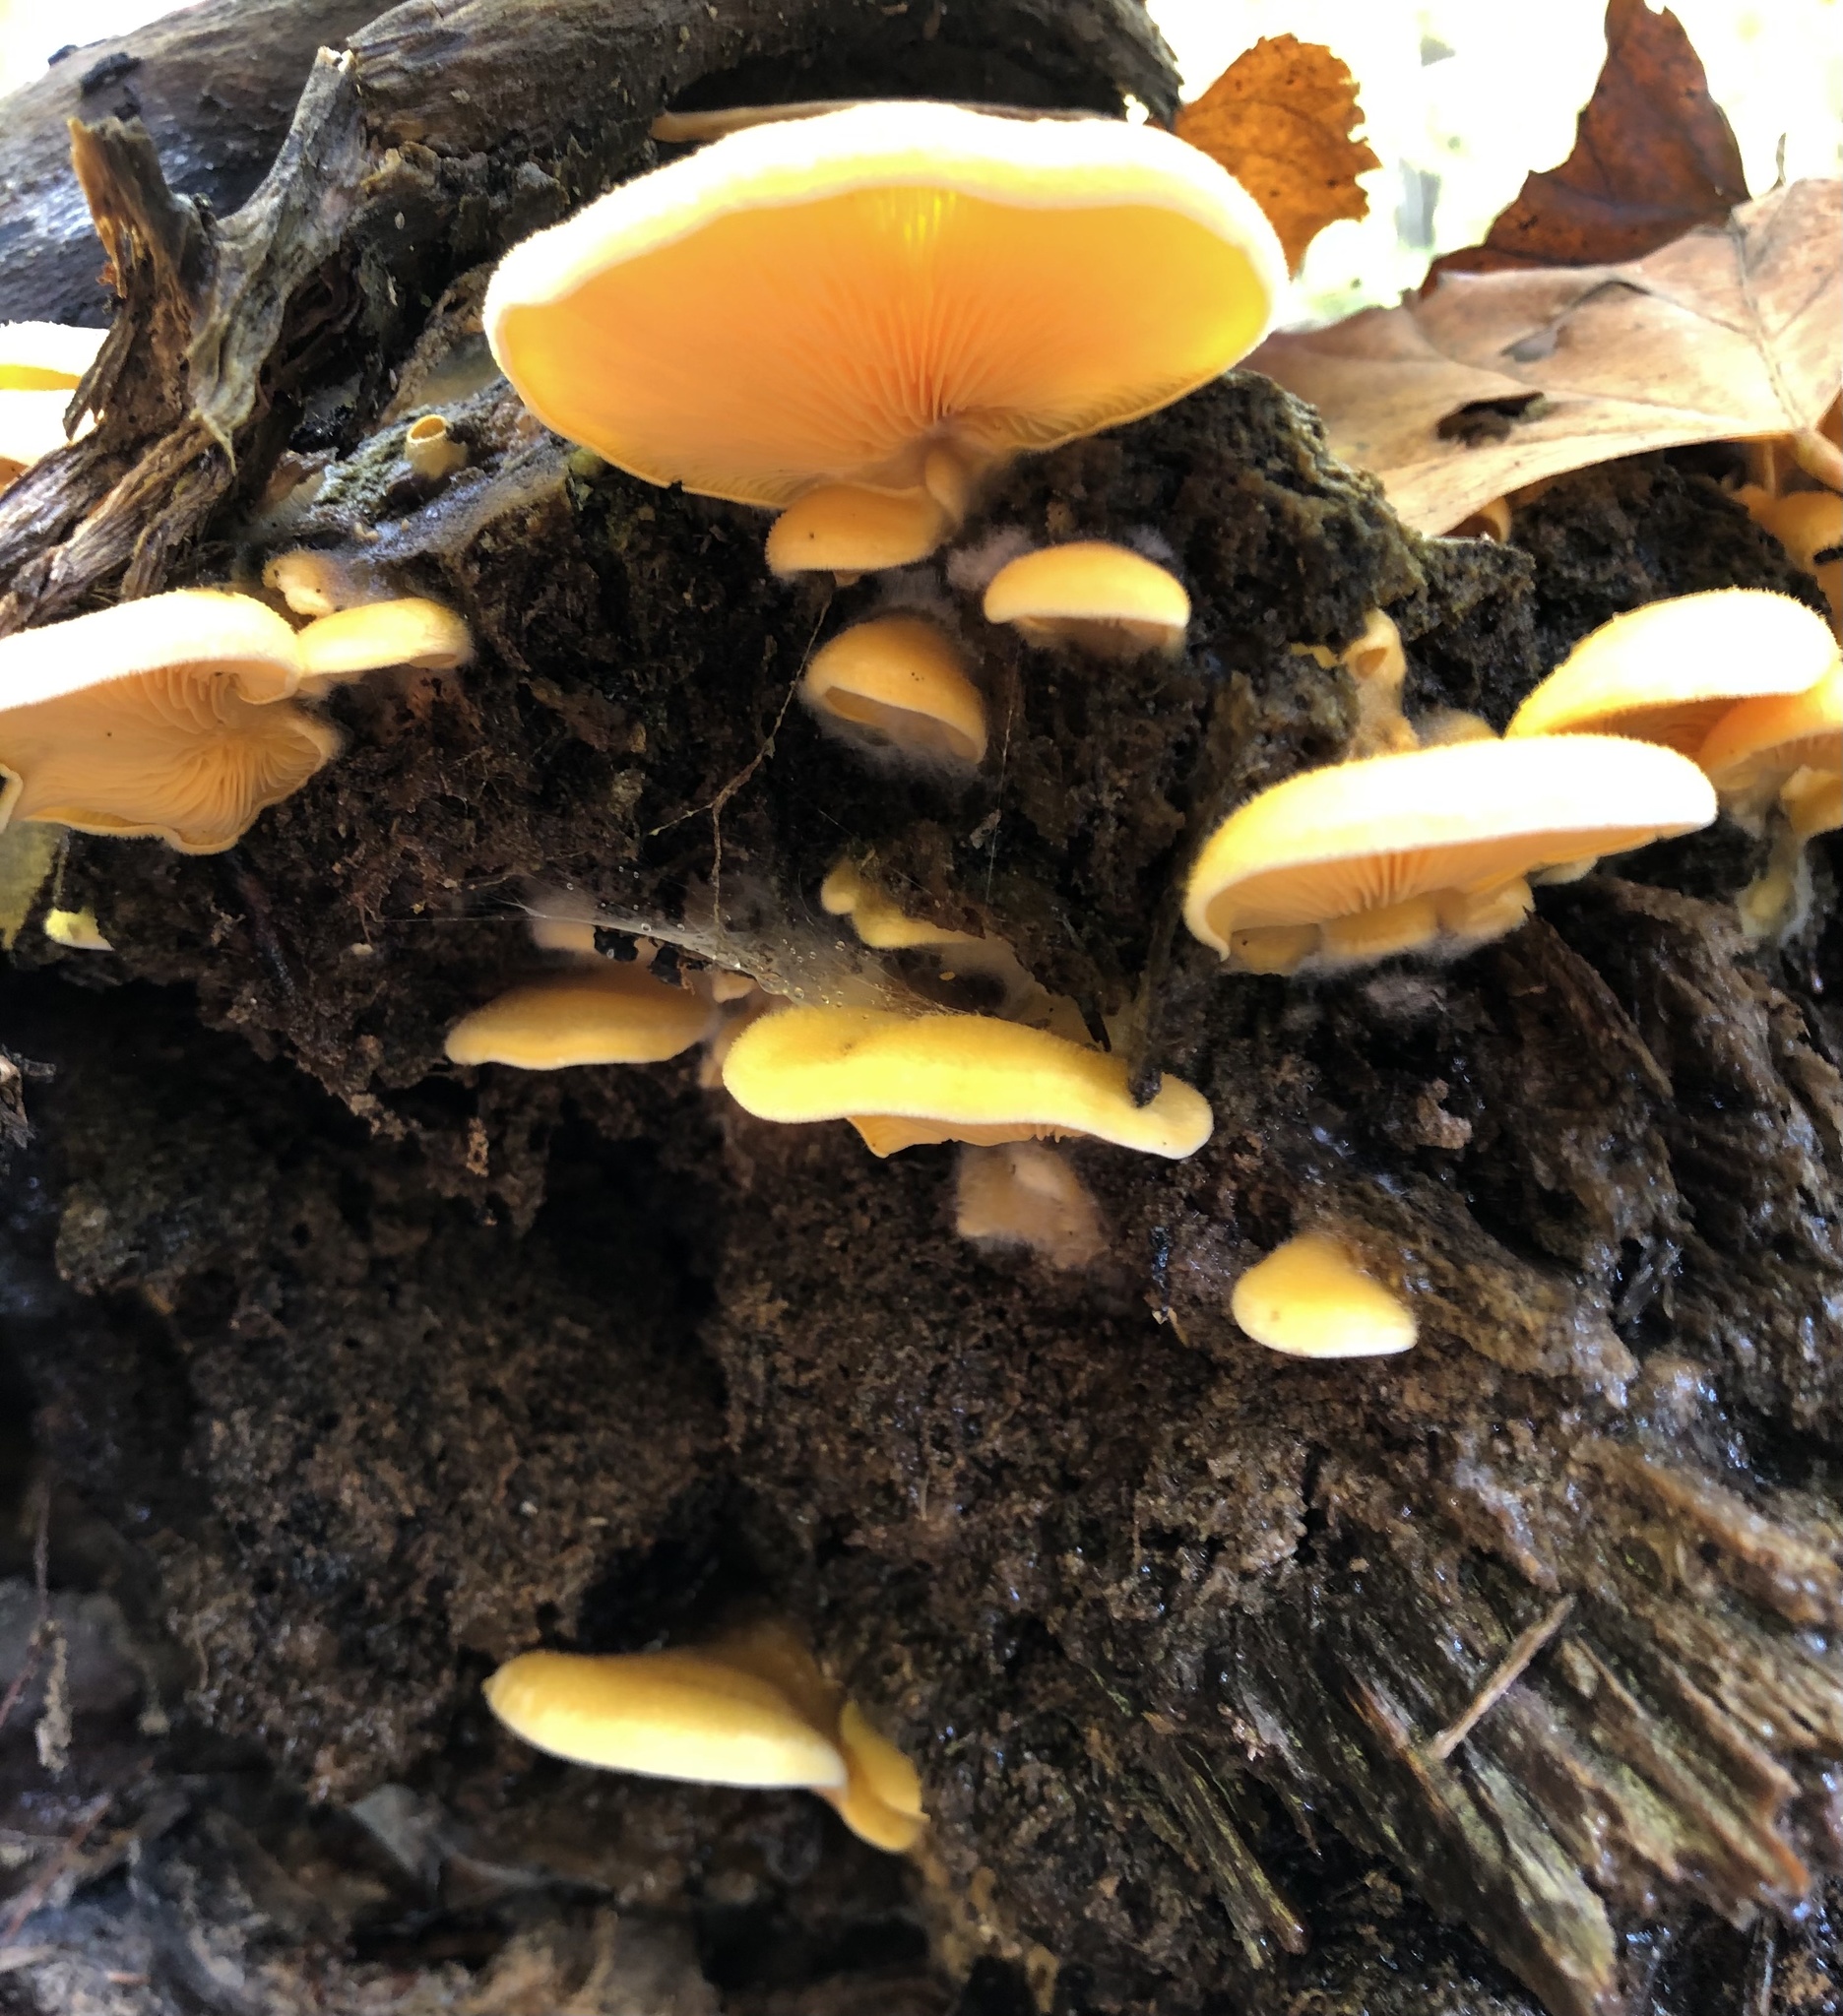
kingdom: Fungi
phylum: Basidiomycota
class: Agaricomycetes
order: Agaricales
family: Phyllotopsidaceae
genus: Phyllotopsis
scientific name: Phyllotopsis nidulans
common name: Orange mock oyster
